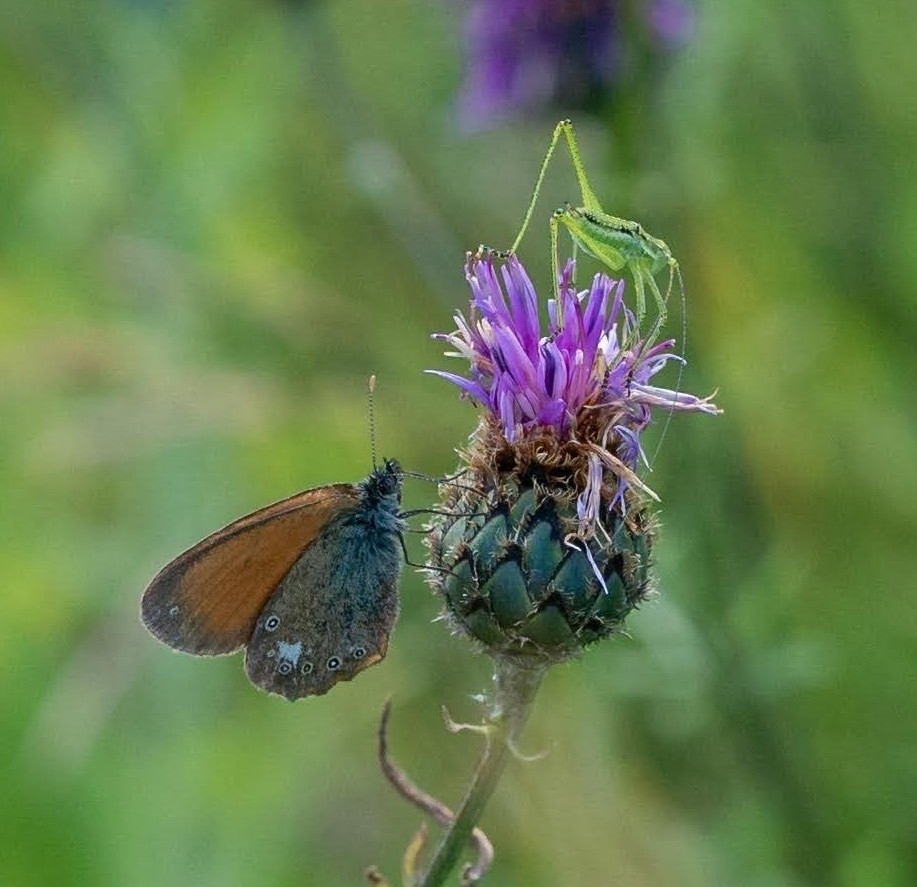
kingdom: Animalia
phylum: Arthropoda
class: Insecta
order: Orthoptera
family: Tettigoniidae
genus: Leptophyes
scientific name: Leptophyes albovittata
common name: Striped bush-cricket
